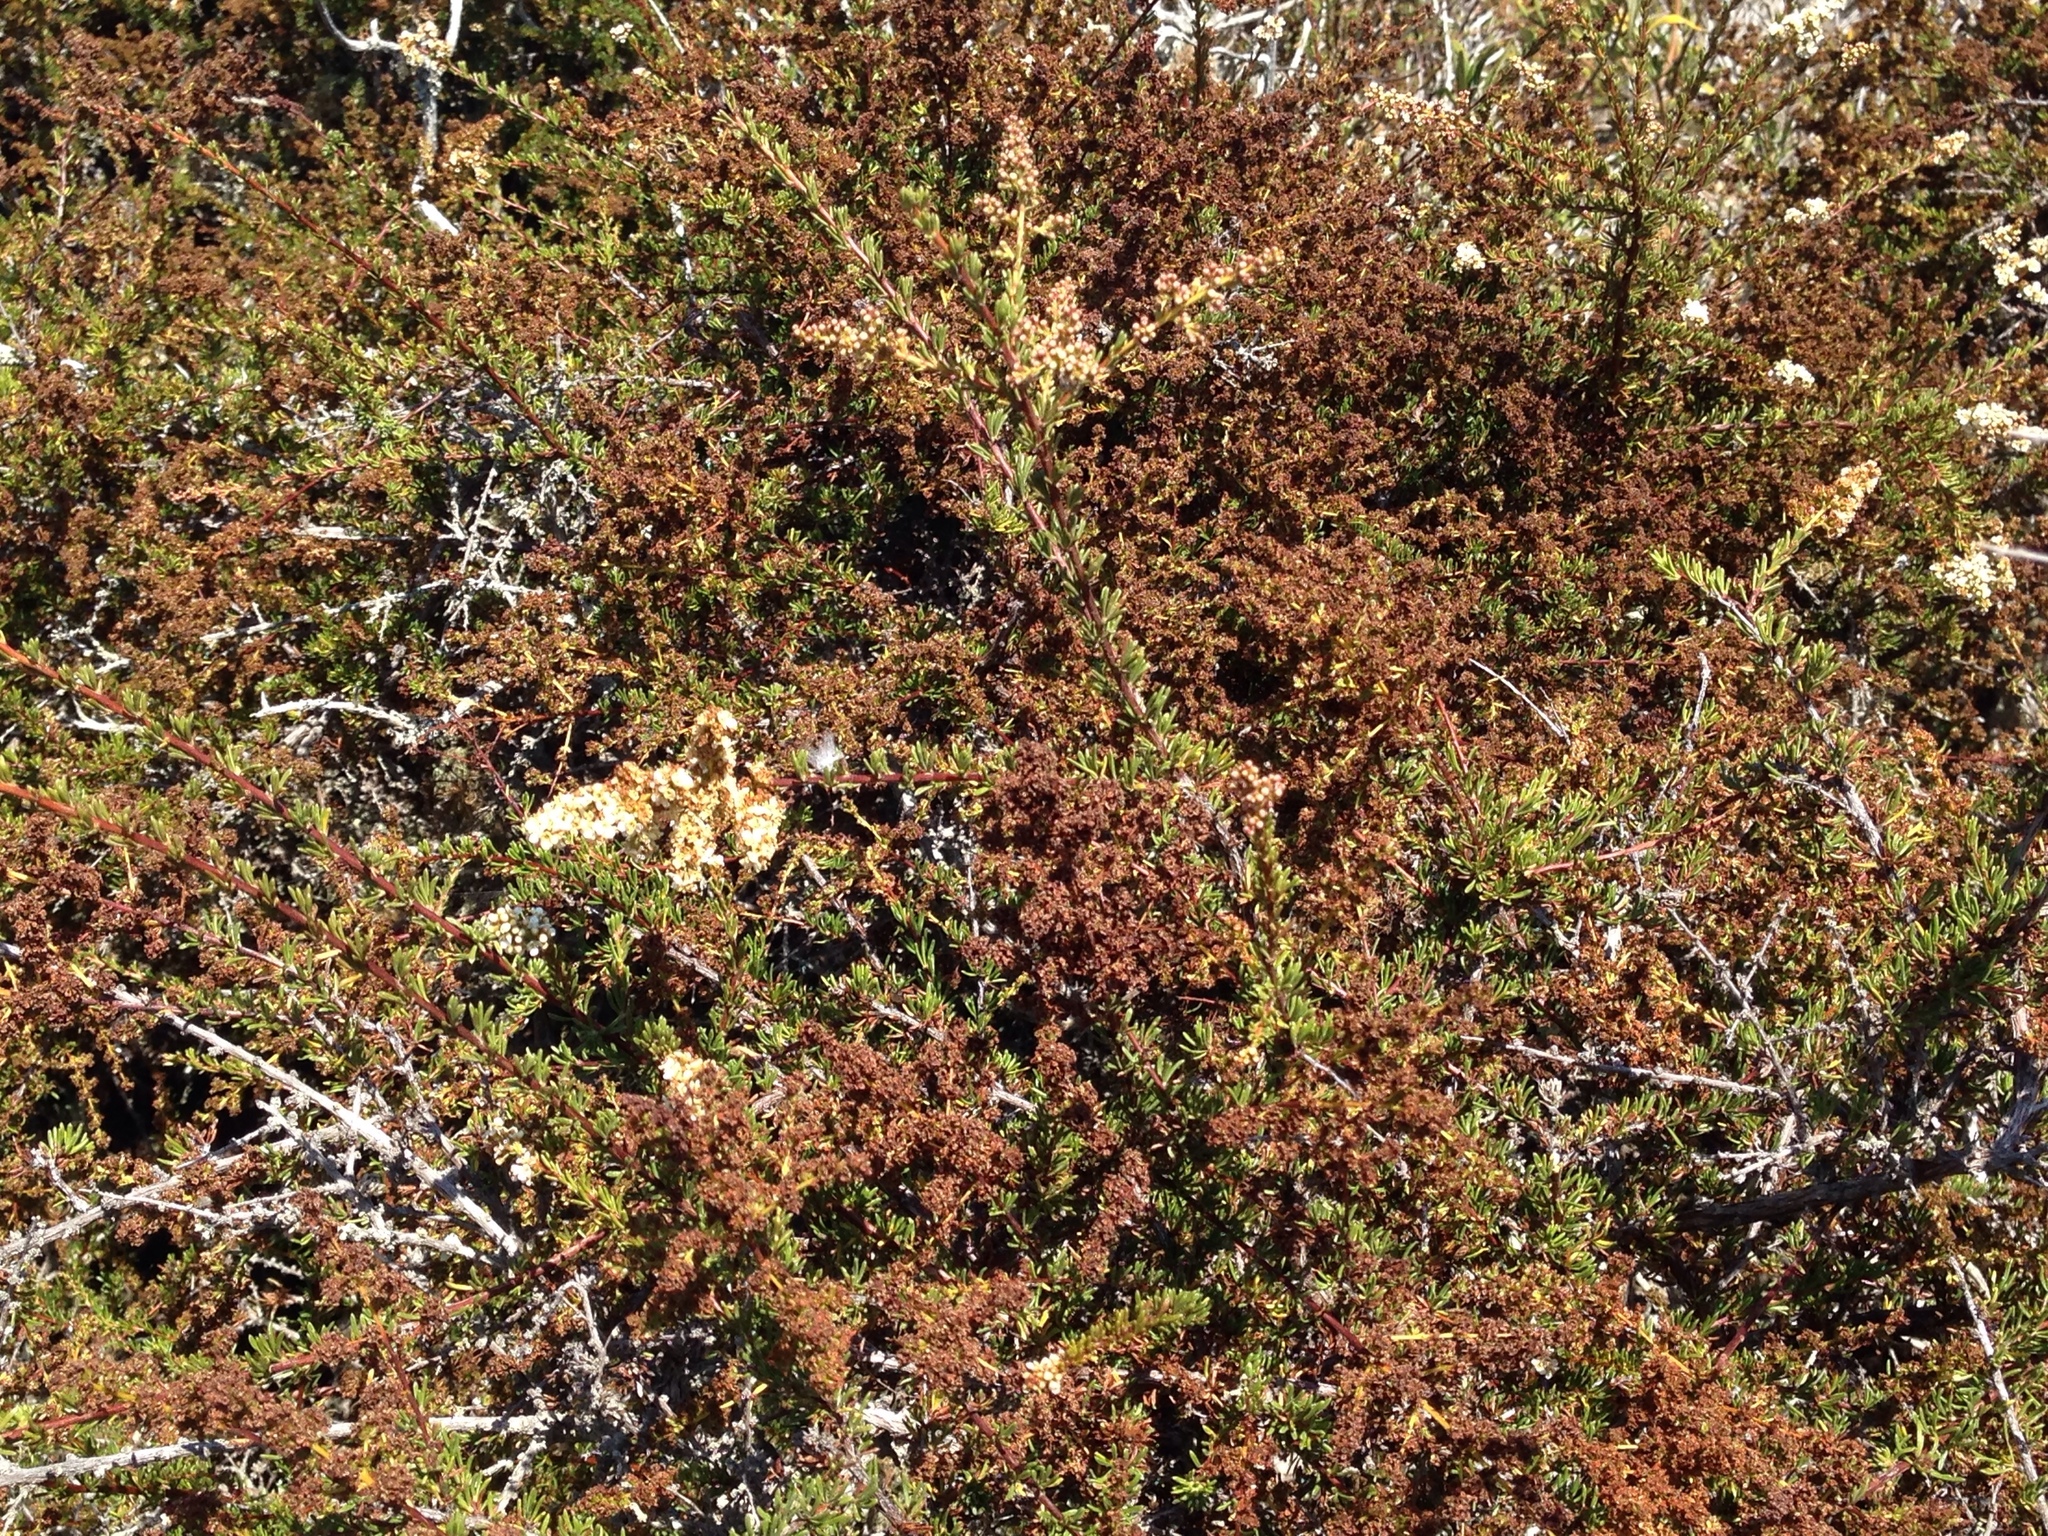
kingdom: Plantae
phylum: Tracheophyta
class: Magnoliopsida
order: Rosales
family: Rosaceae
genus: Adenostoma
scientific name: Adenostoma fasciculatum
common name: Chamise
